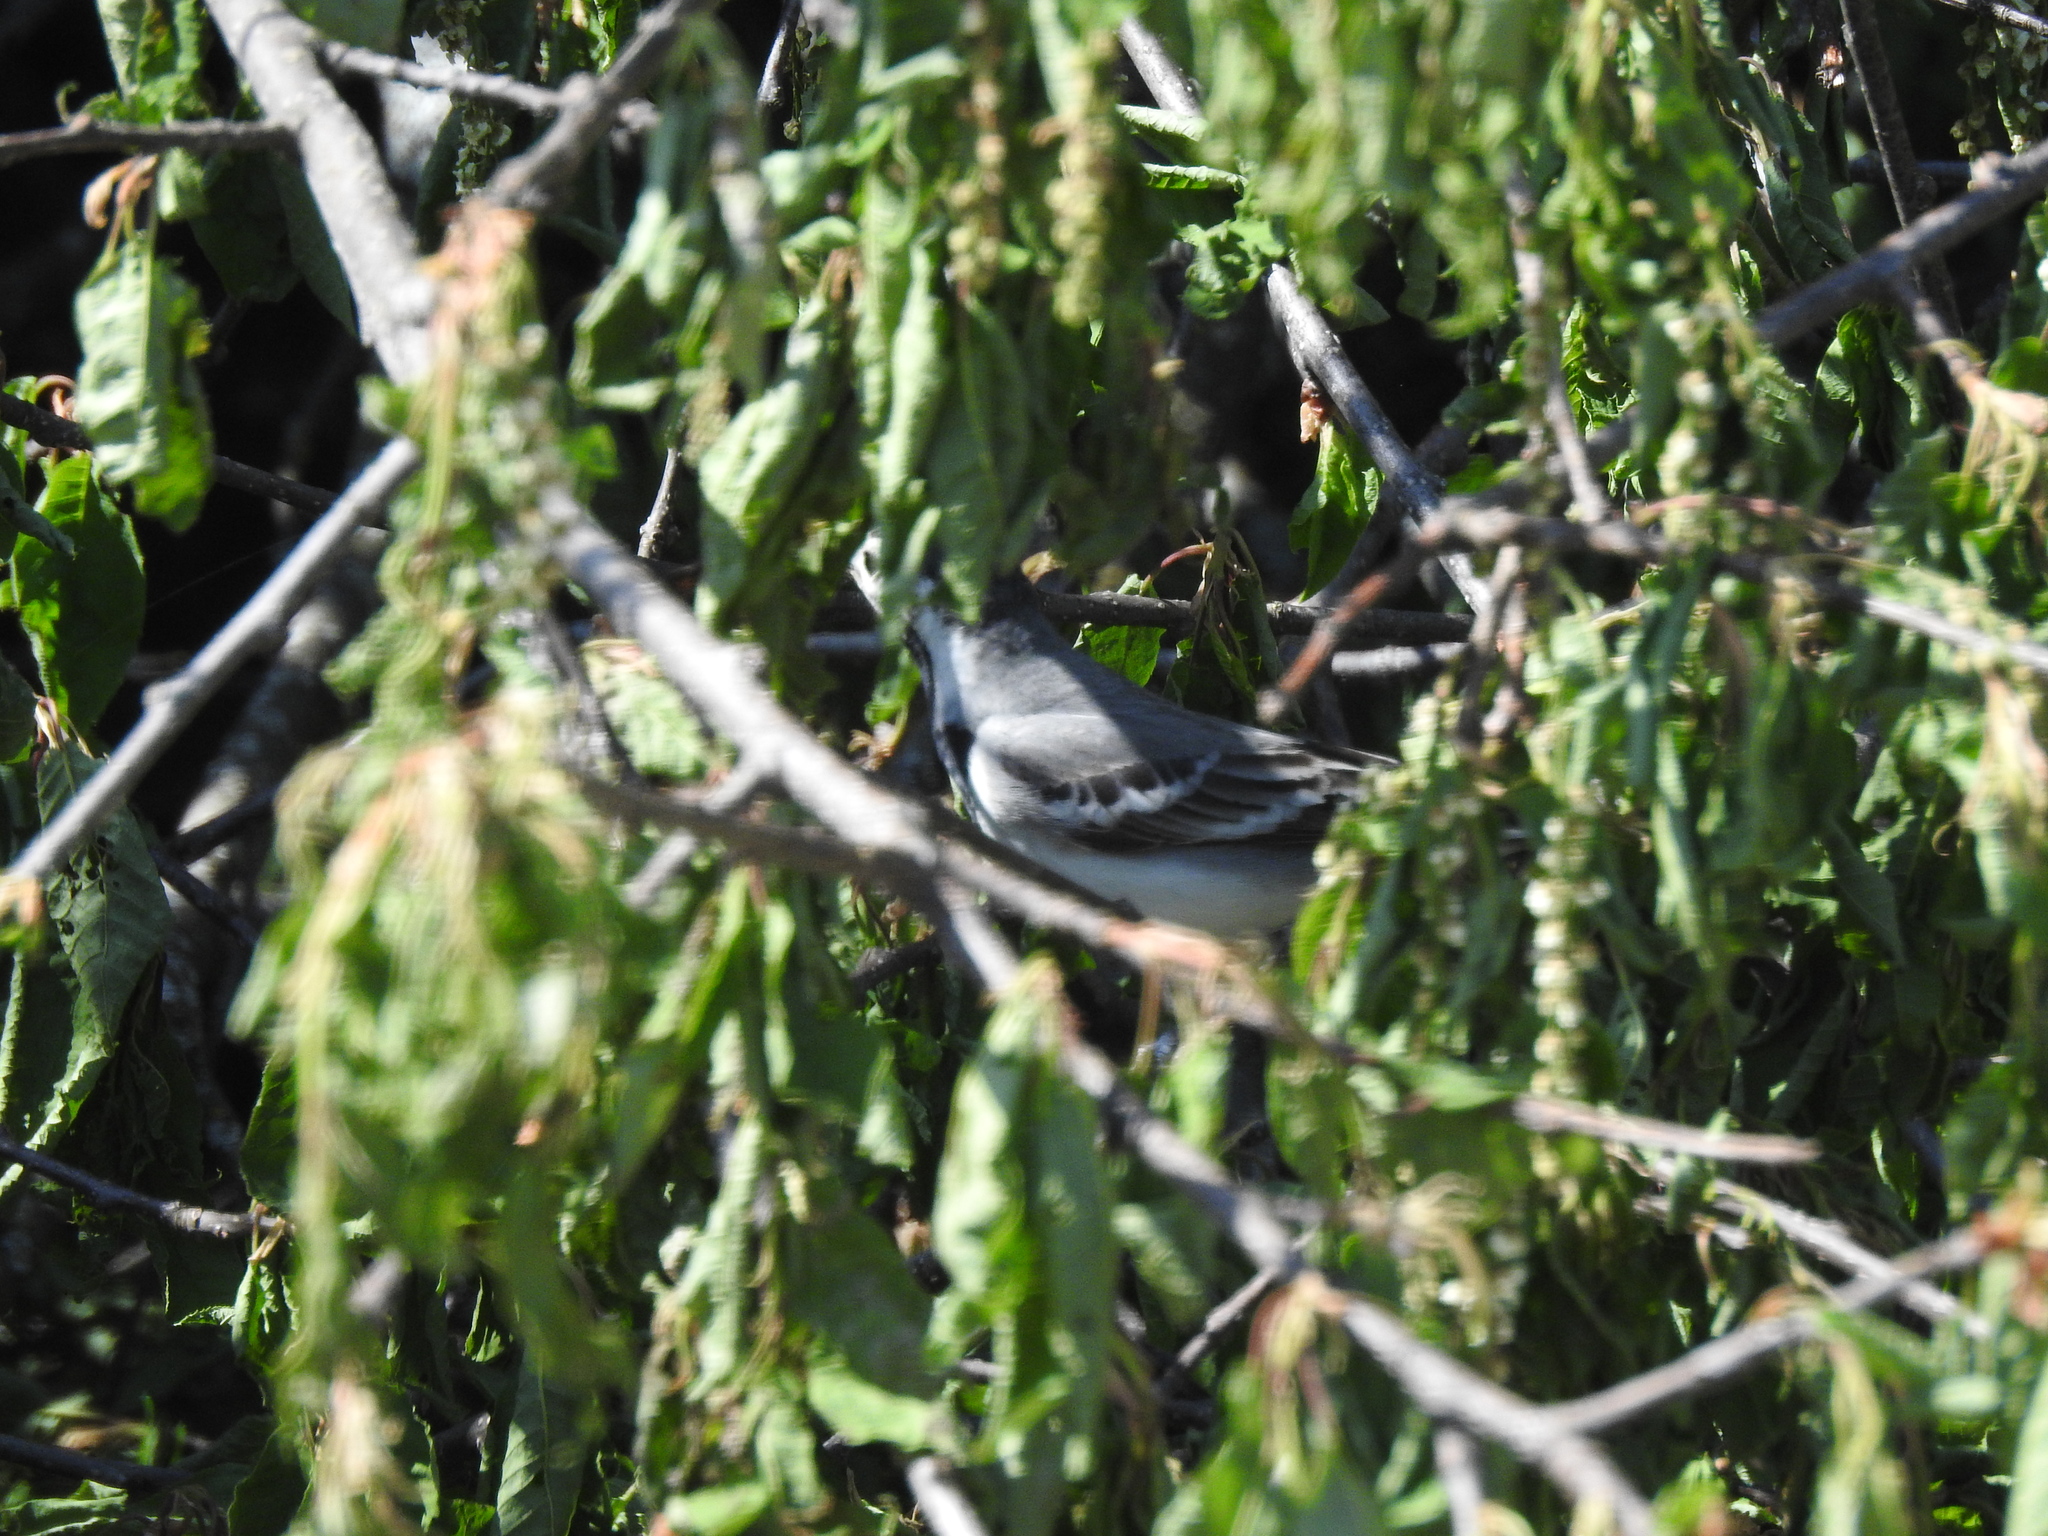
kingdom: Animalia
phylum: Chordata
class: Aves
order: Passeriformes
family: Motacillidae
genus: Motacilla
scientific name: Motacilla alba
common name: White wagtail
